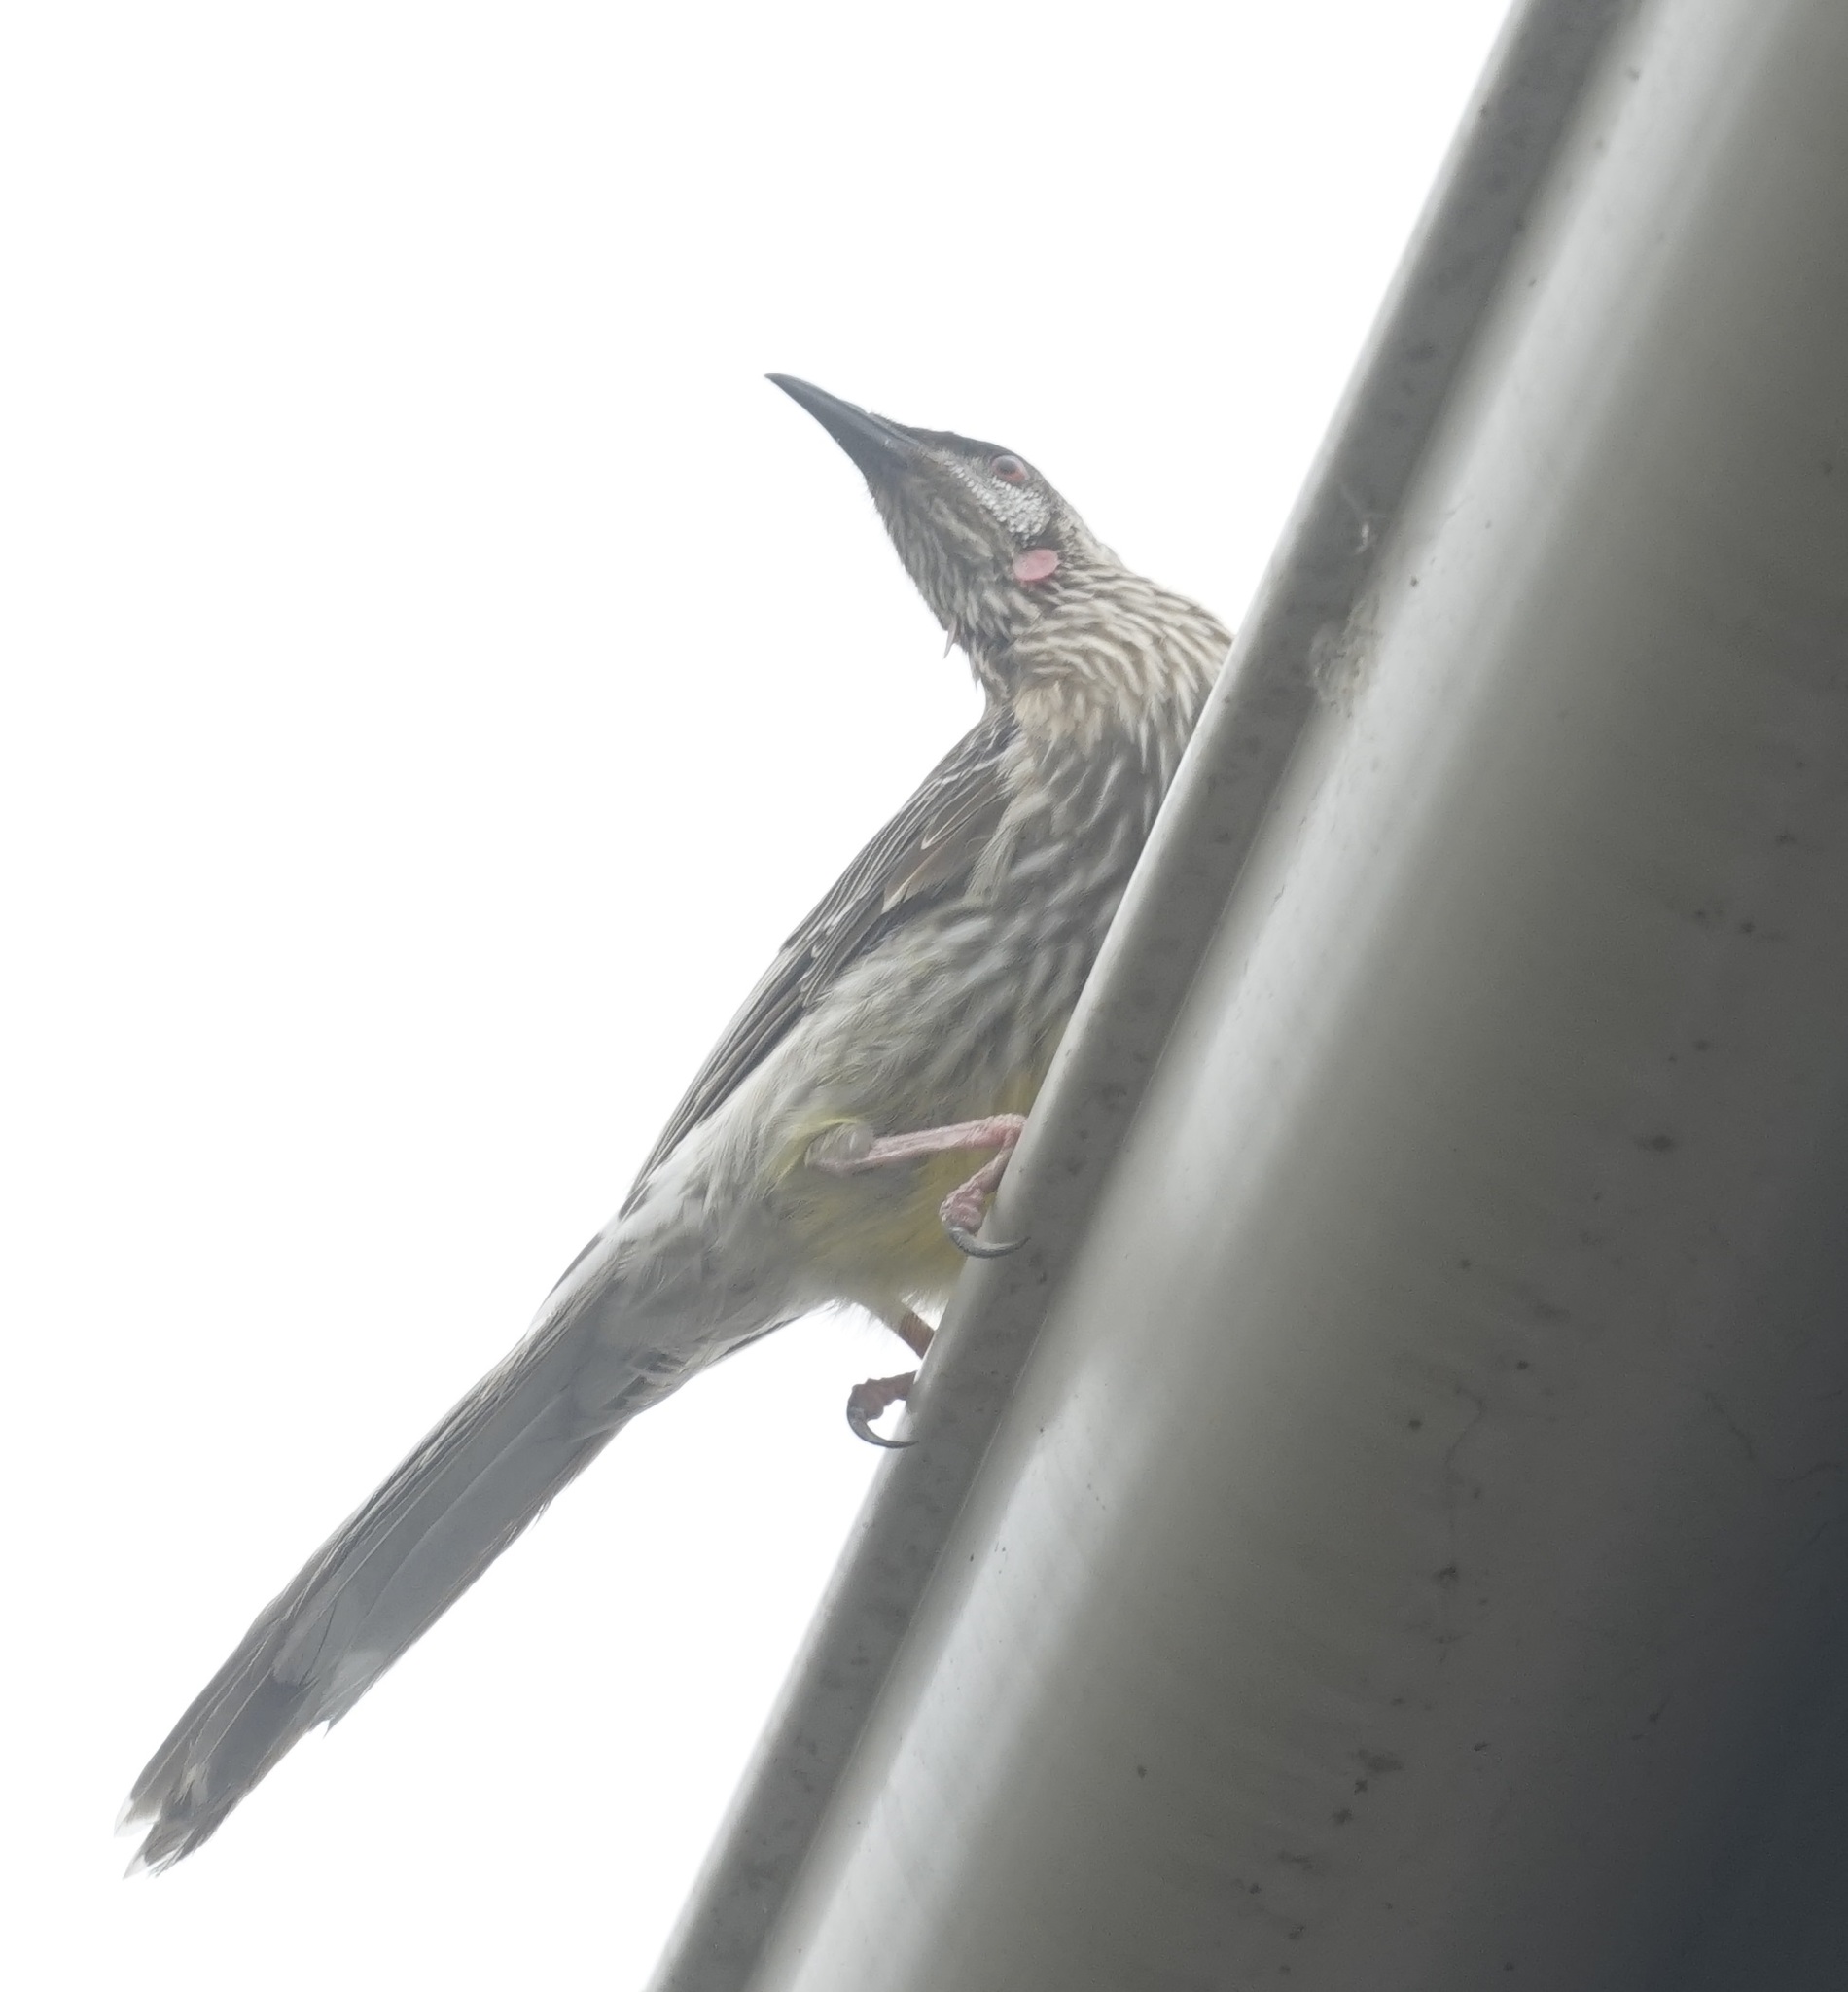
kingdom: Animalia
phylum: Chordata
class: Aves
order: Passeriformes
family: Meliphagidae
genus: Anthochaera
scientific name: Anthochaera carunculata
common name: Red wattlebird
